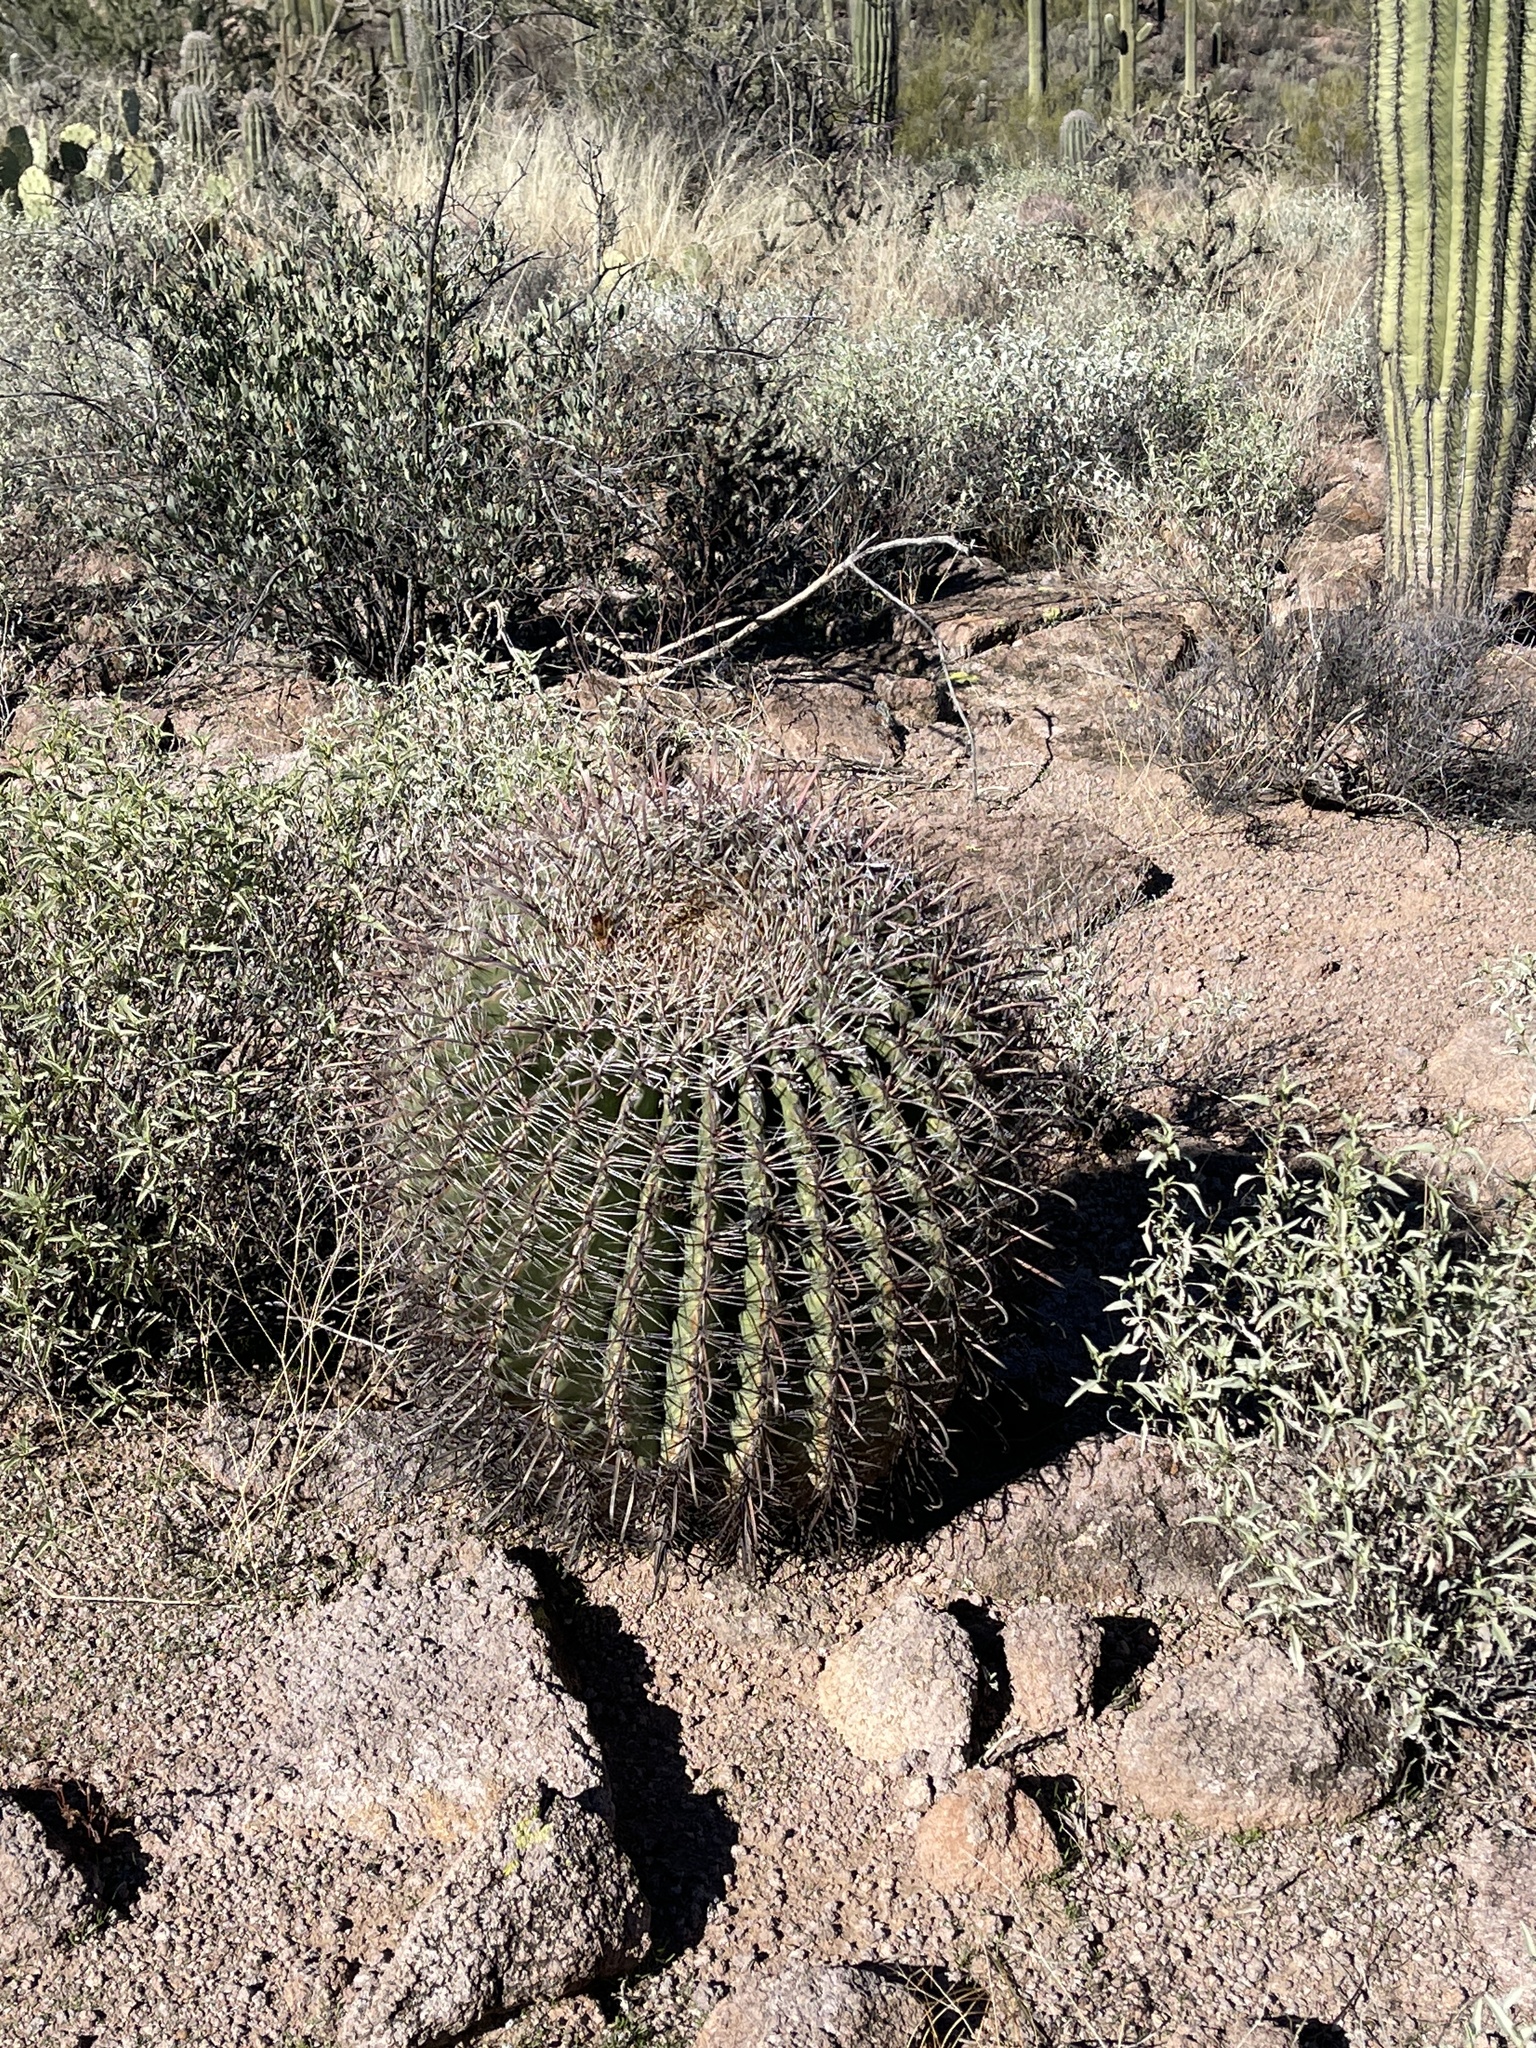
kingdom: Plantae
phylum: Tracheophyta
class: Magnoliopsida
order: Caryophyllales
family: Cactaceae
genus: Ferocactus
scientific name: Ferocactus wislizeni
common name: Candy barrel cactus
